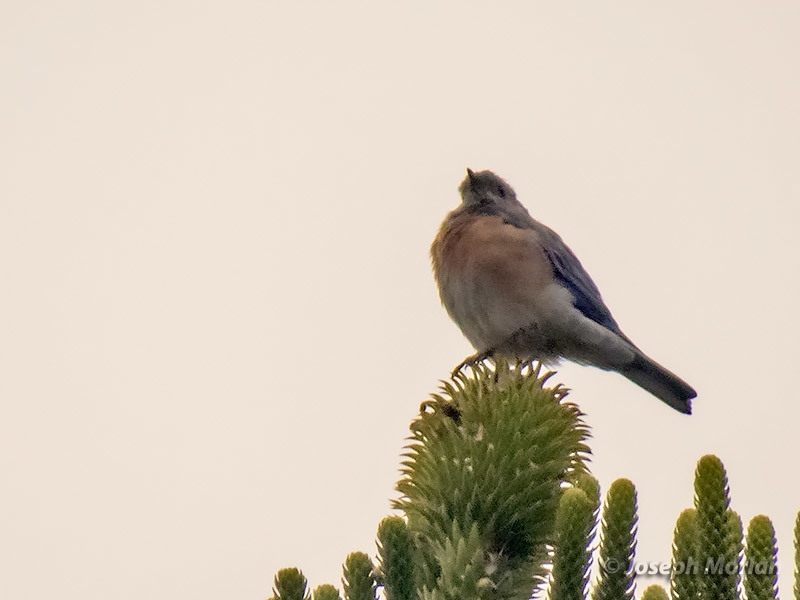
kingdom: Animalia
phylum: Chordata
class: Aves
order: Passeriformes
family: Turdidae
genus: Sialia
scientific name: Sialia mexicana
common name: Western bluebird
